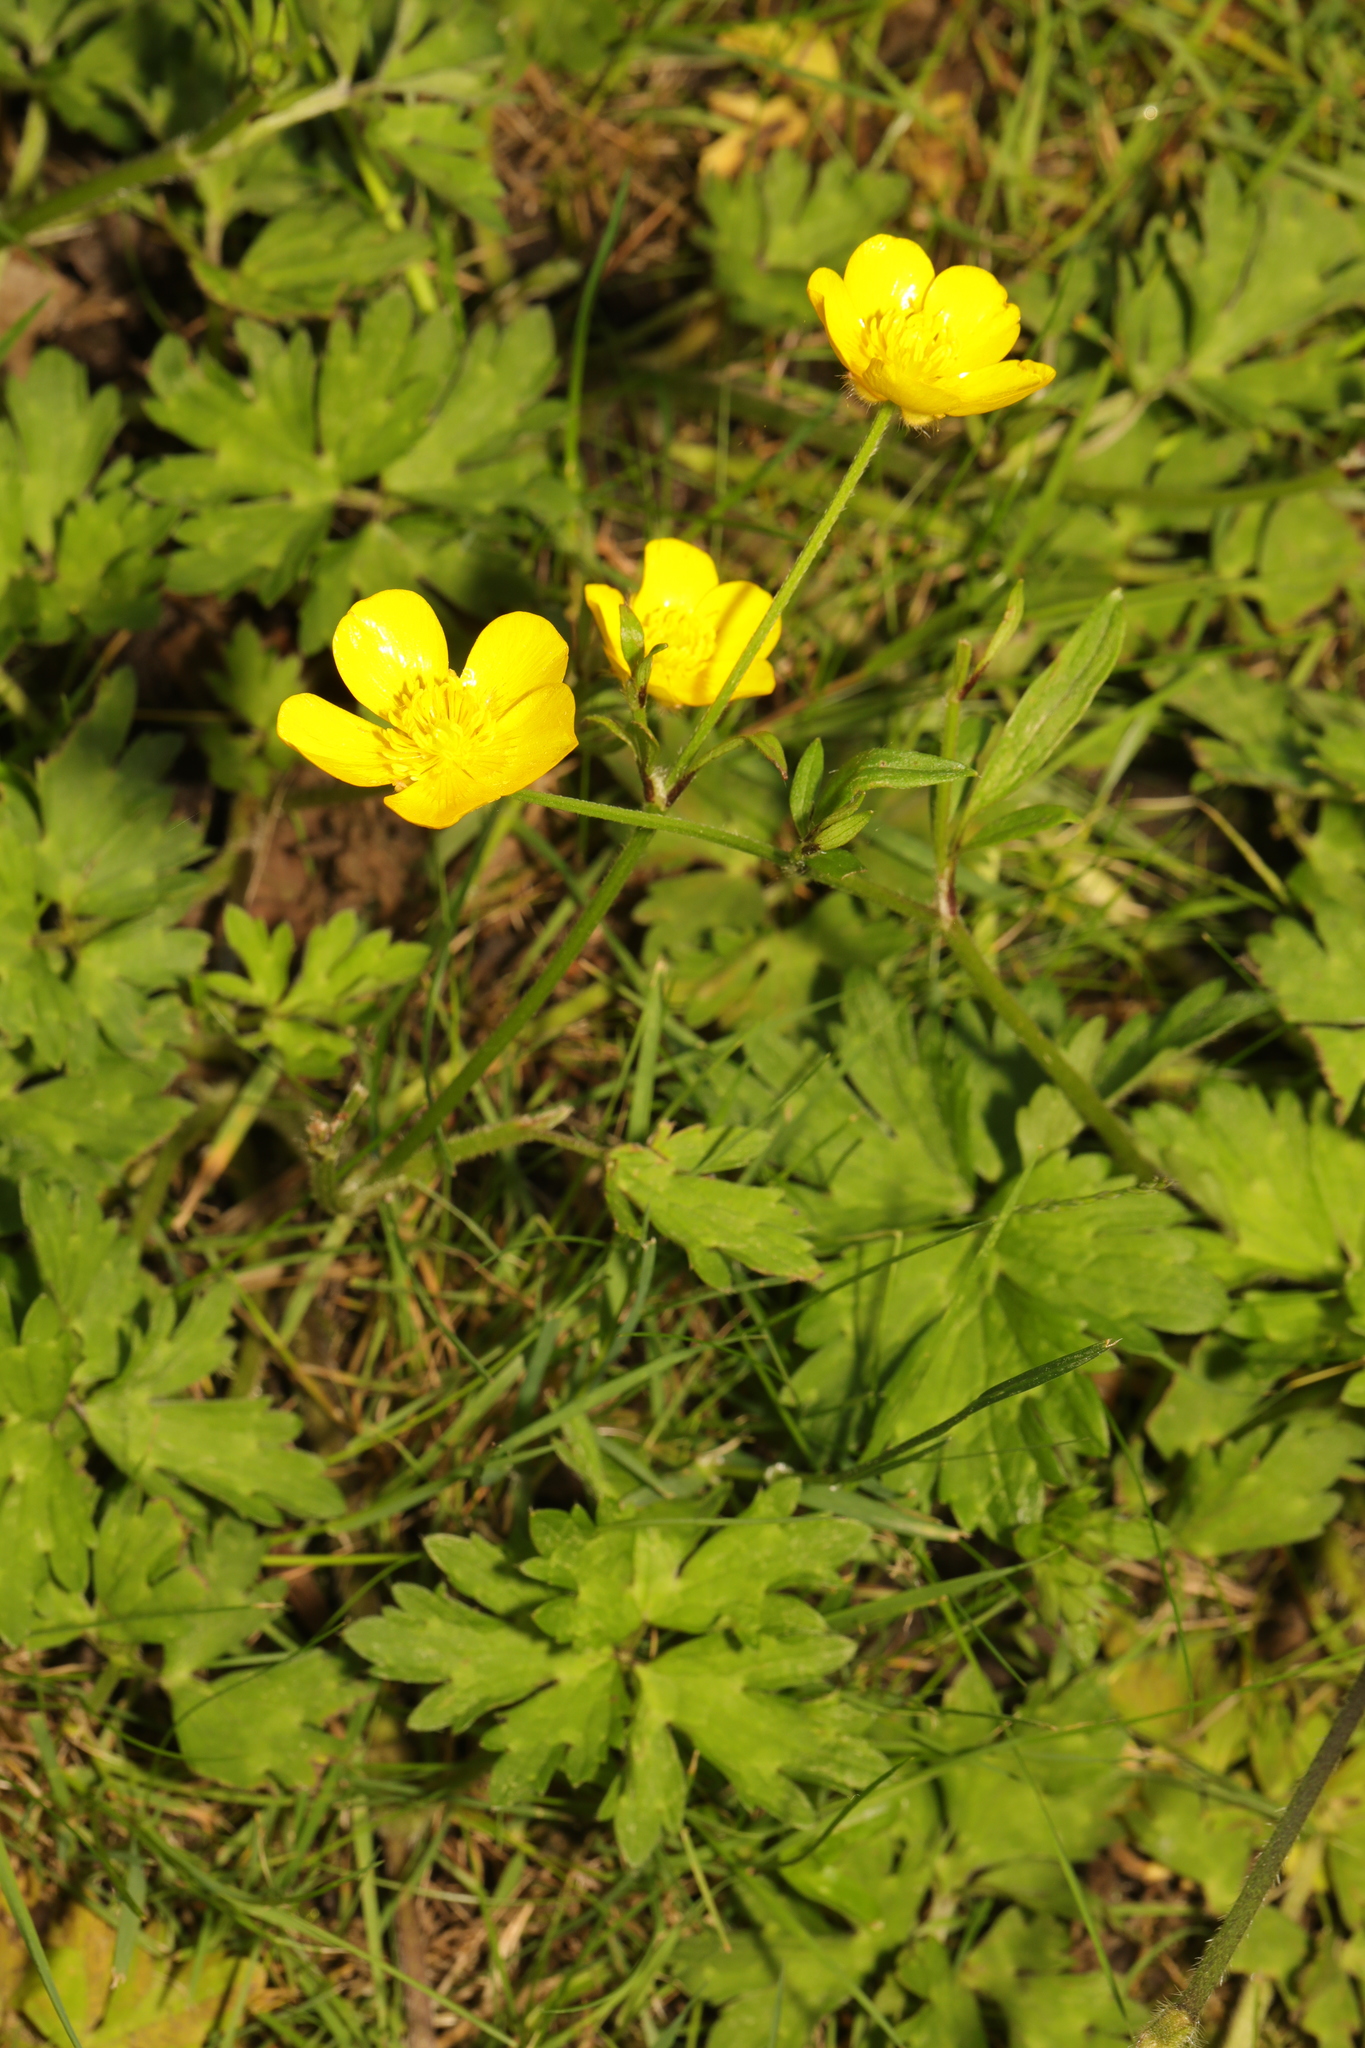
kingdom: Plantae
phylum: Tracheophyta
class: Magnoliopsida
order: Ranunculales
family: Ranunculaceae
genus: Ranunculus
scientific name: Ranunculus repens
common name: Creeping buttercup
